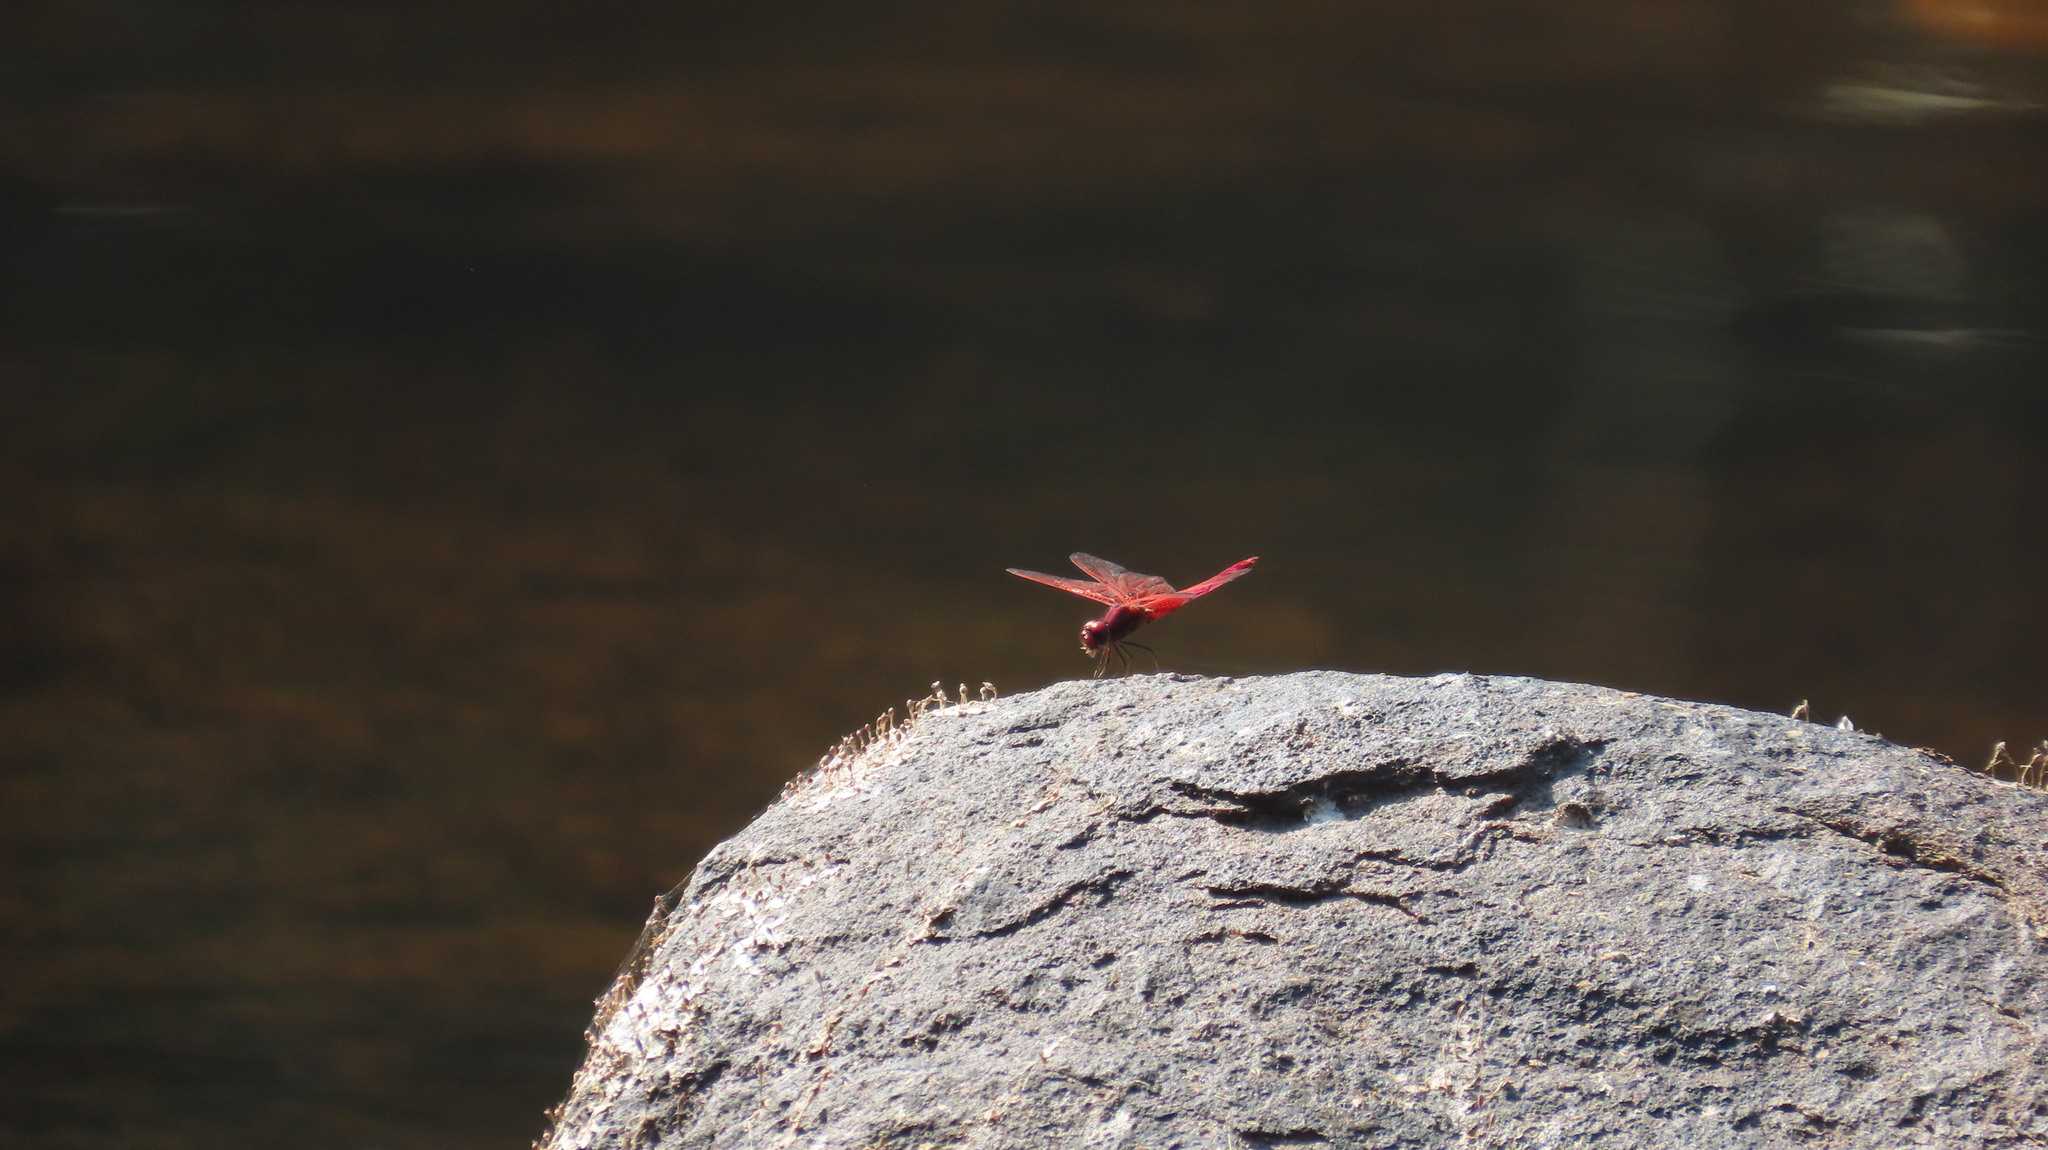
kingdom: Animalia
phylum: Arthropoda
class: Insecta
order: Odonata
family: Libellulidae
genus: Trithemis
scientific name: Trithemis aurora
